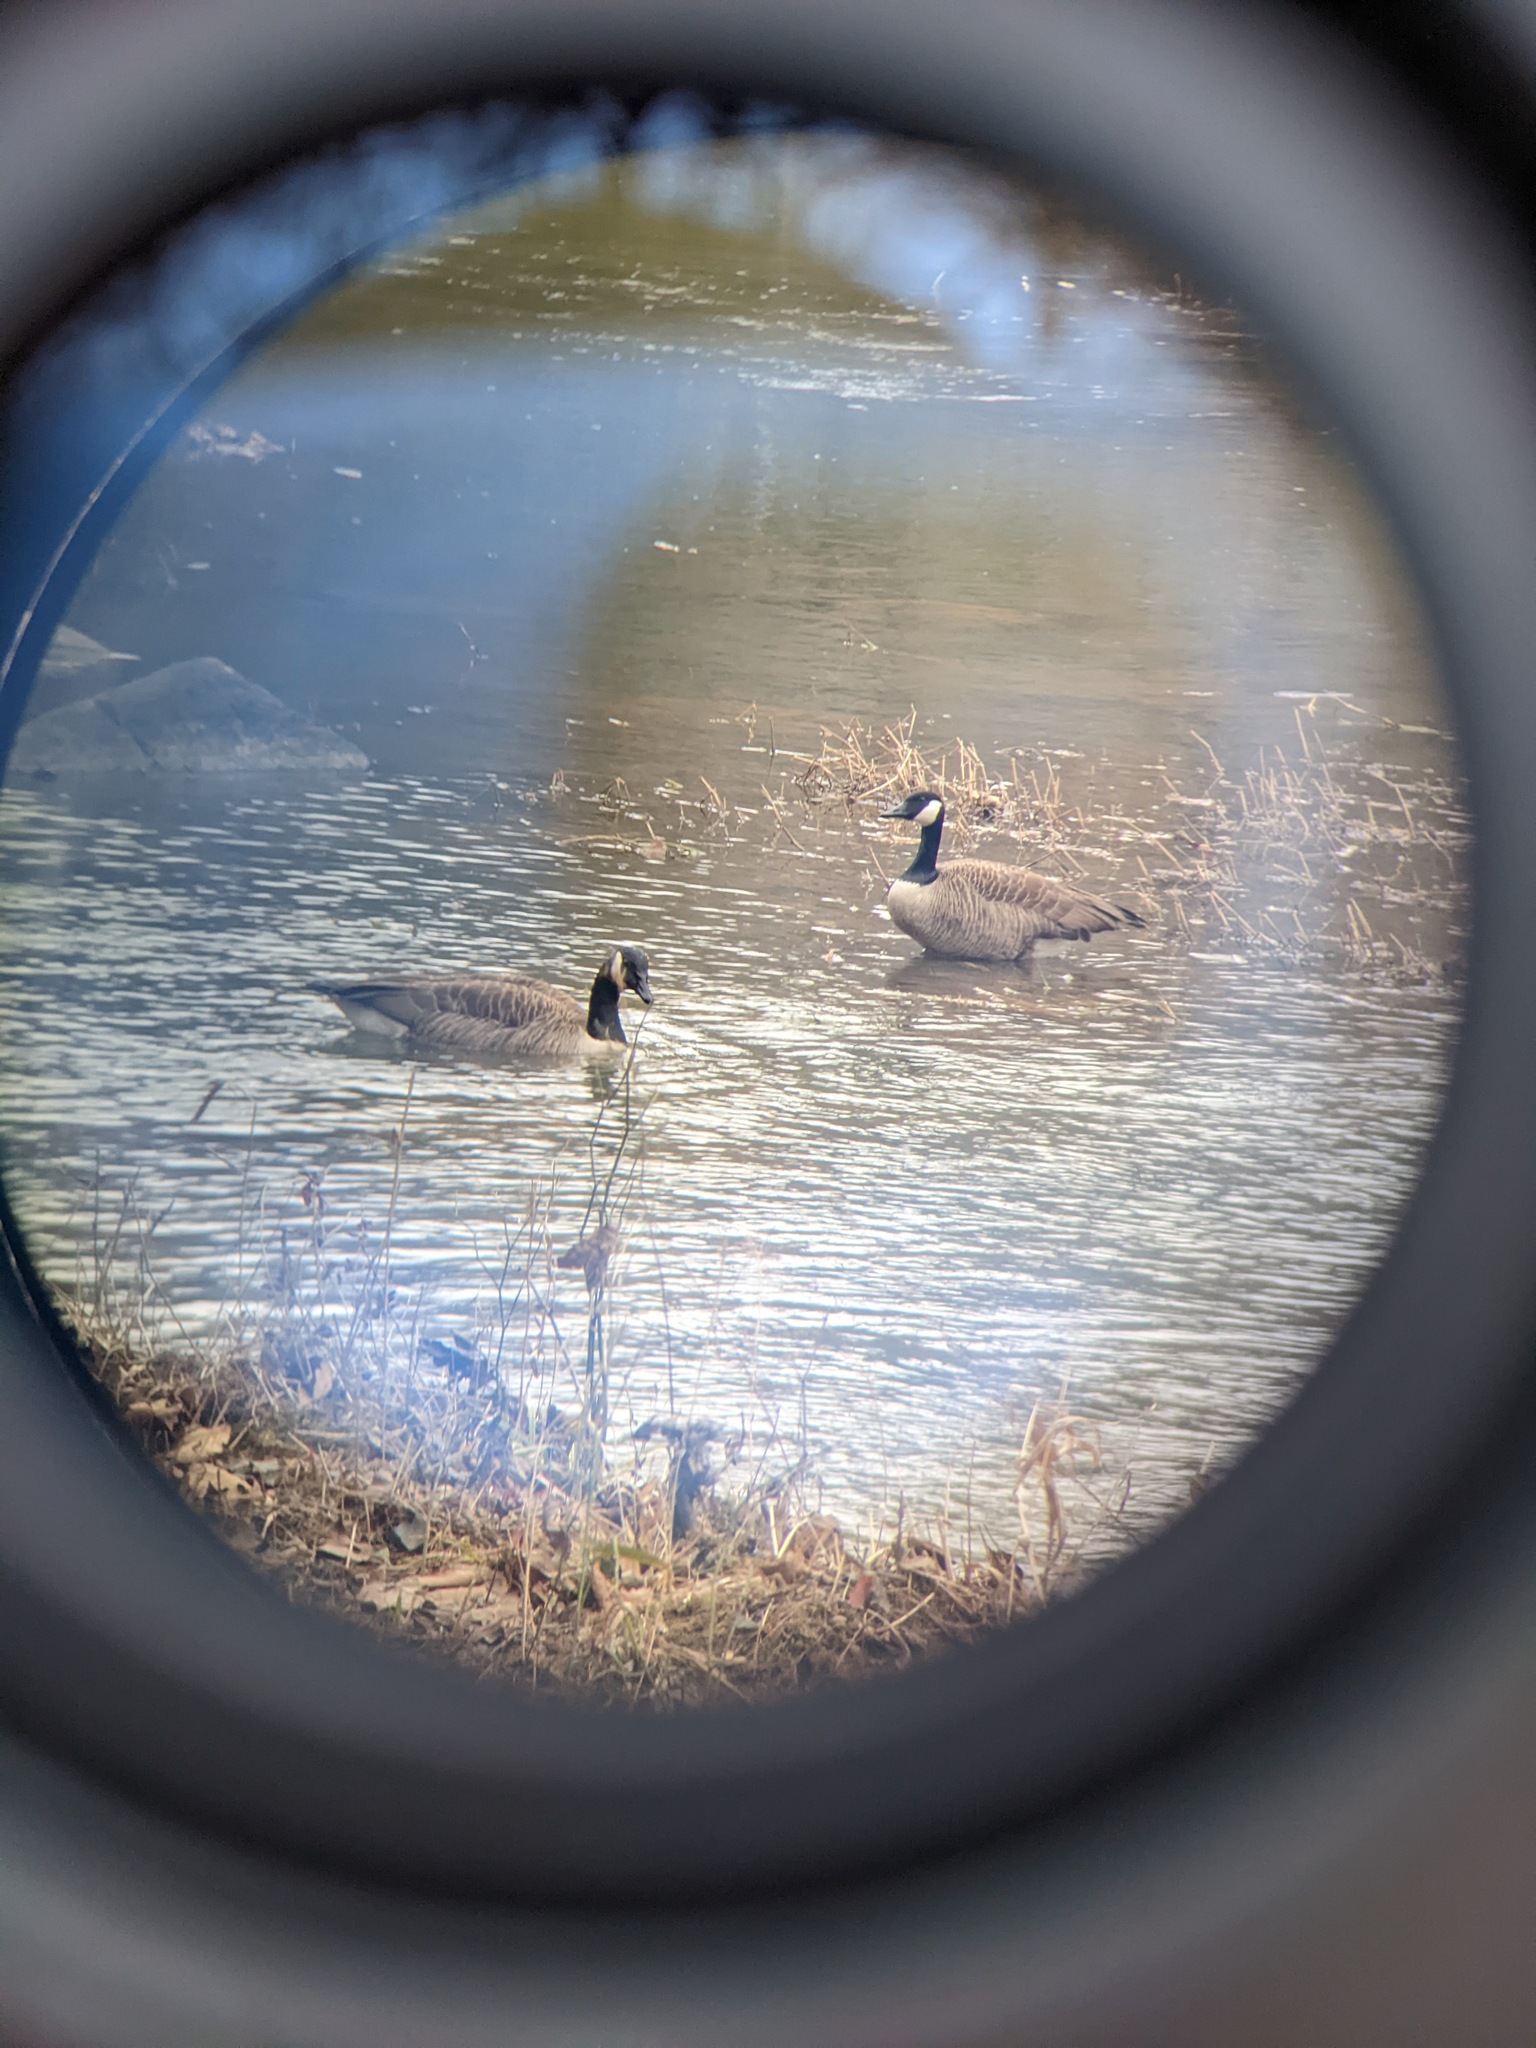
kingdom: Animalia
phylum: Chordata
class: Aves
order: Anseriformes
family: Anatidae
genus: Branta
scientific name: Branta canadensis
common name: Canada goose
